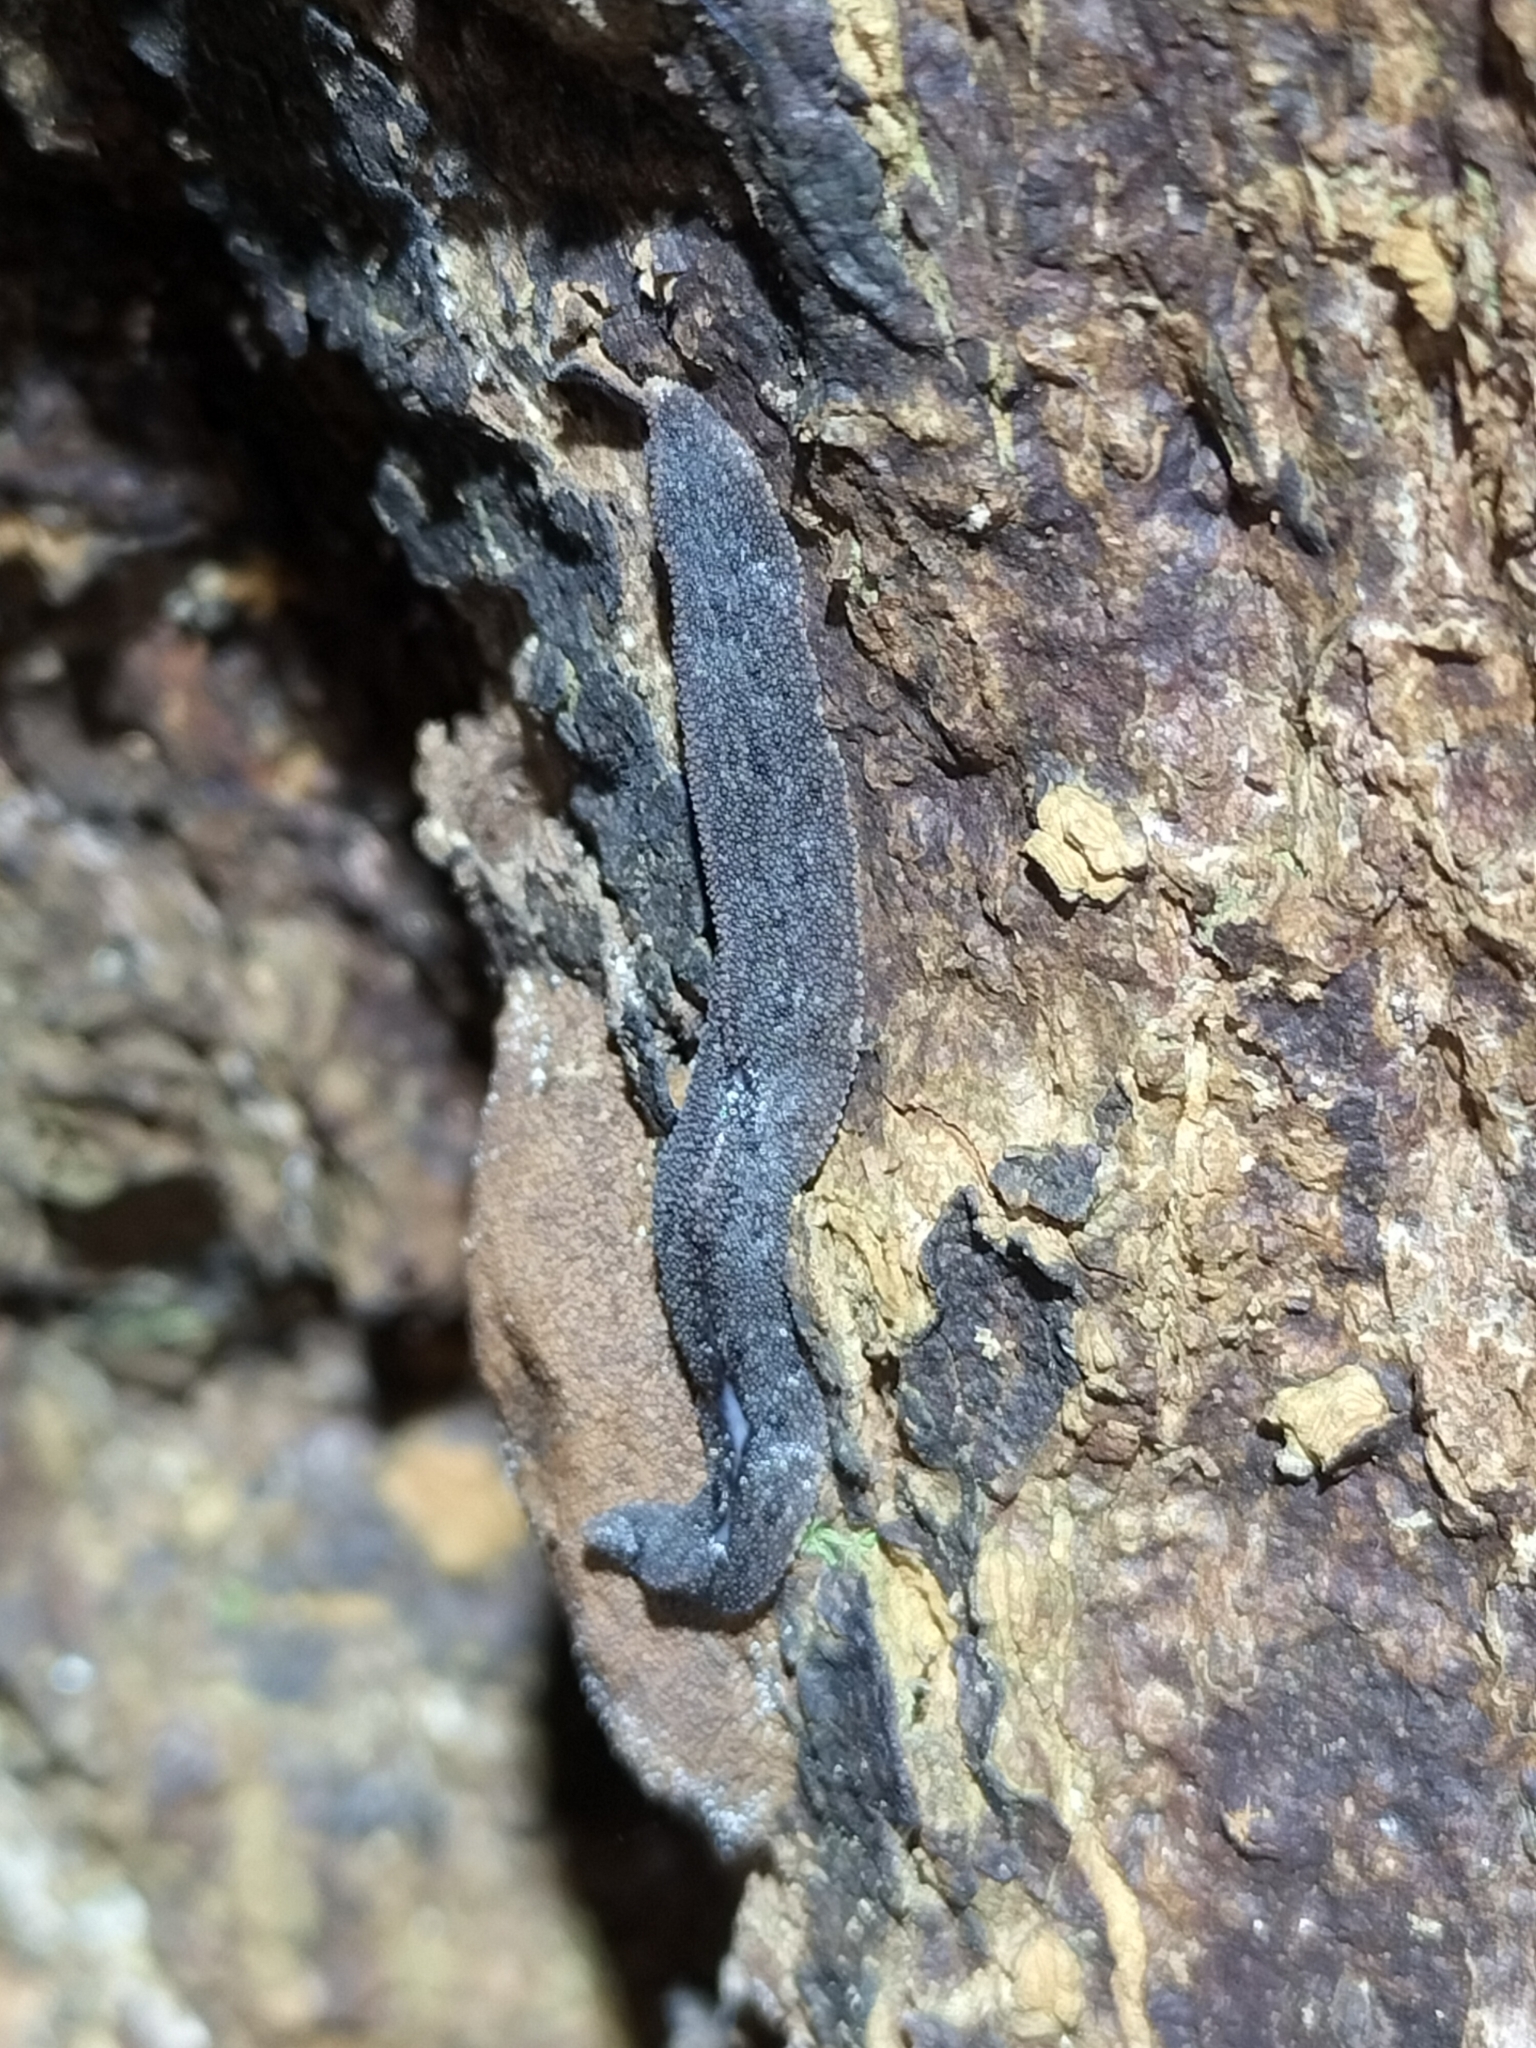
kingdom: Animalia
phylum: Mollusca
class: Gastropoda
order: Systellommatophora
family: Rathouisiidae
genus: Atopos
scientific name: Atopos australis
